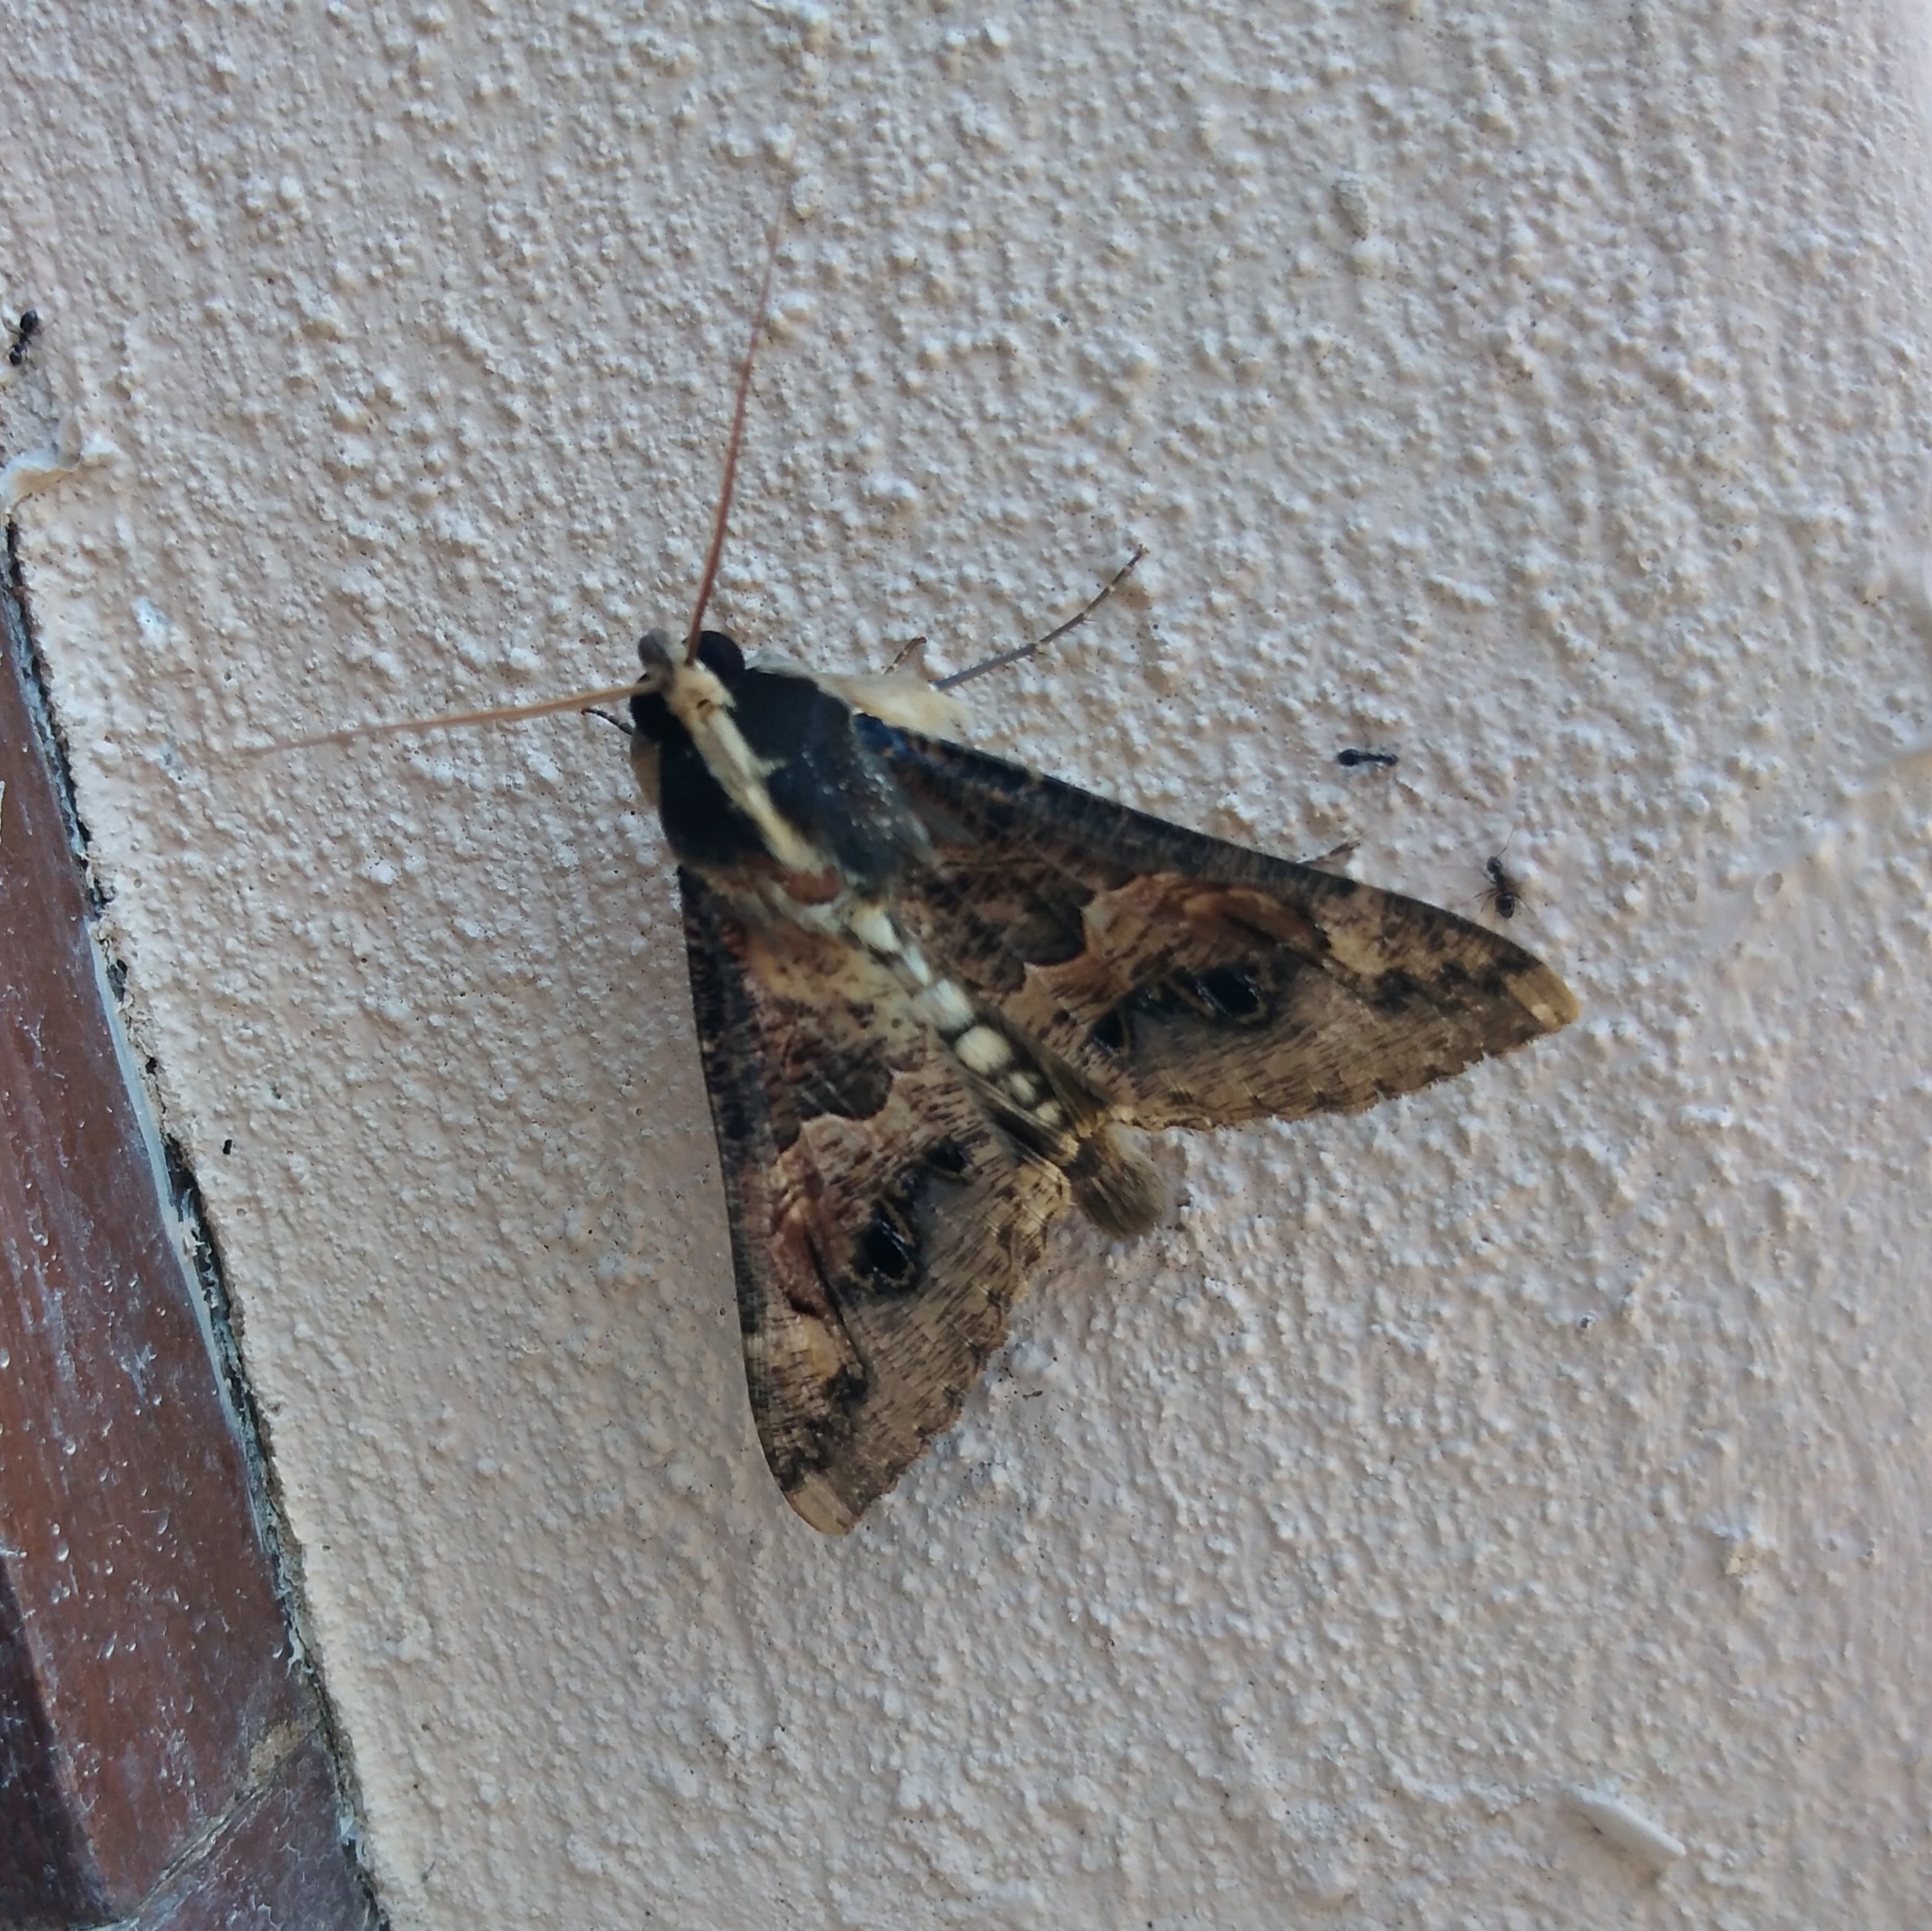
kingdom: Animalia
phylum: Arthropoda
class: Insecta
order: Lepidoptera
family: Erebidae
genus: Sphingomorpha
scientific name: Sphingomorpha chlorea
